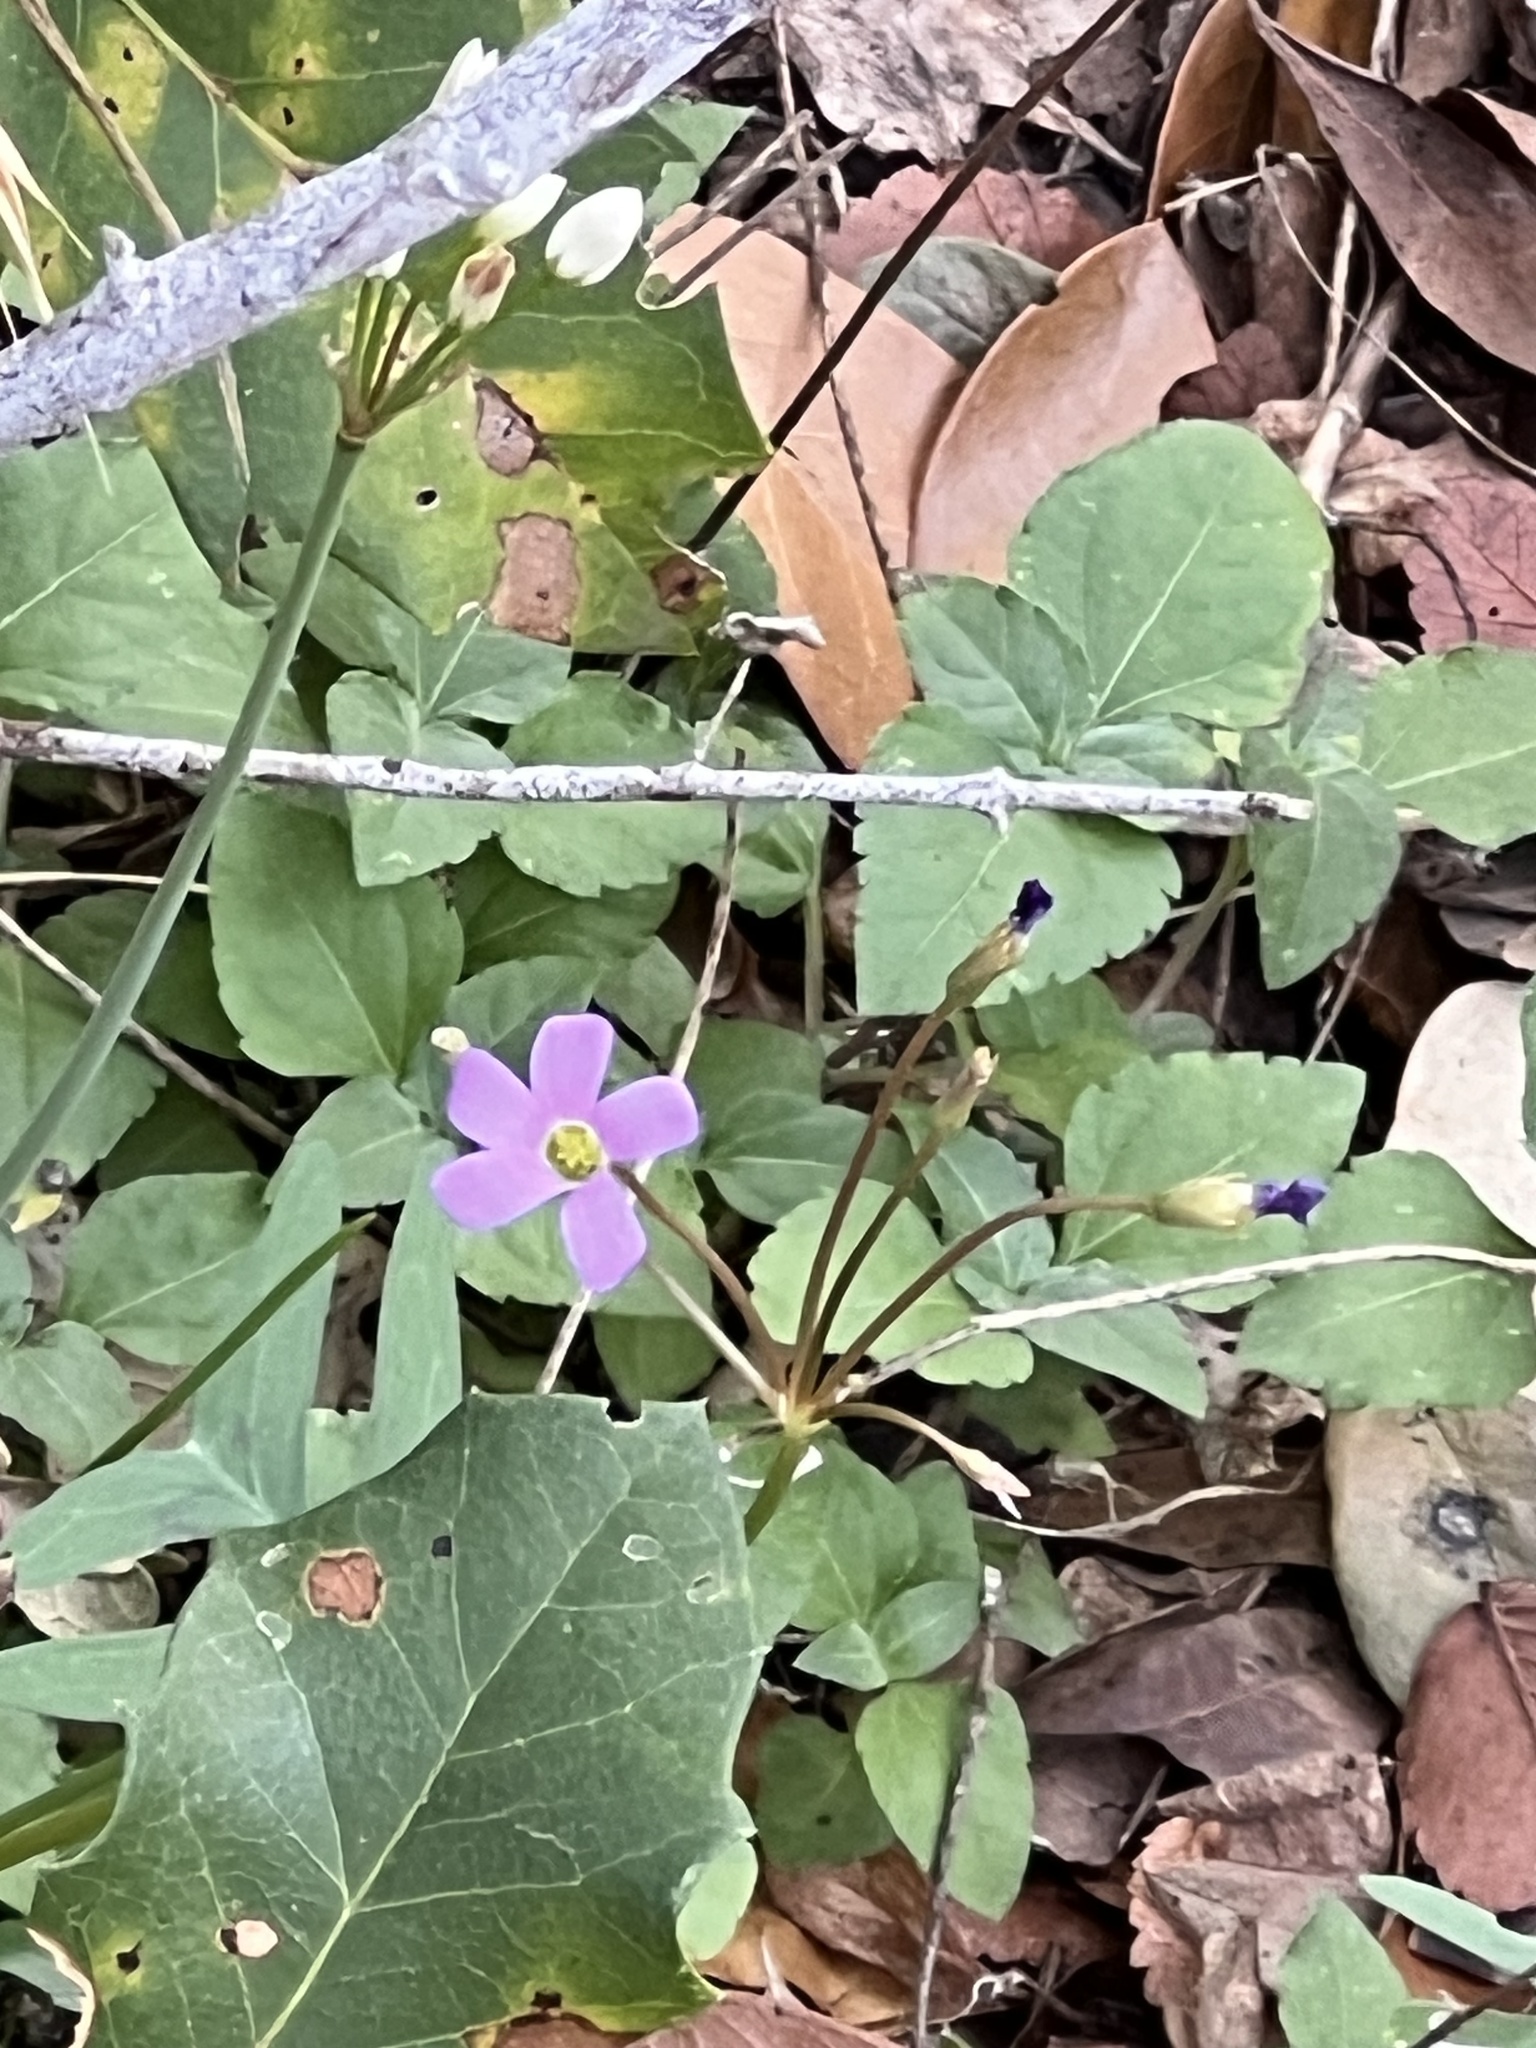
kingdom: Plantae
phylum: Tracheophyta
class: Magnoliopsida
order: Oxalidales
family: Oxalidaceae
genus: Oxalis
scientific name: Oxalis drummondii
